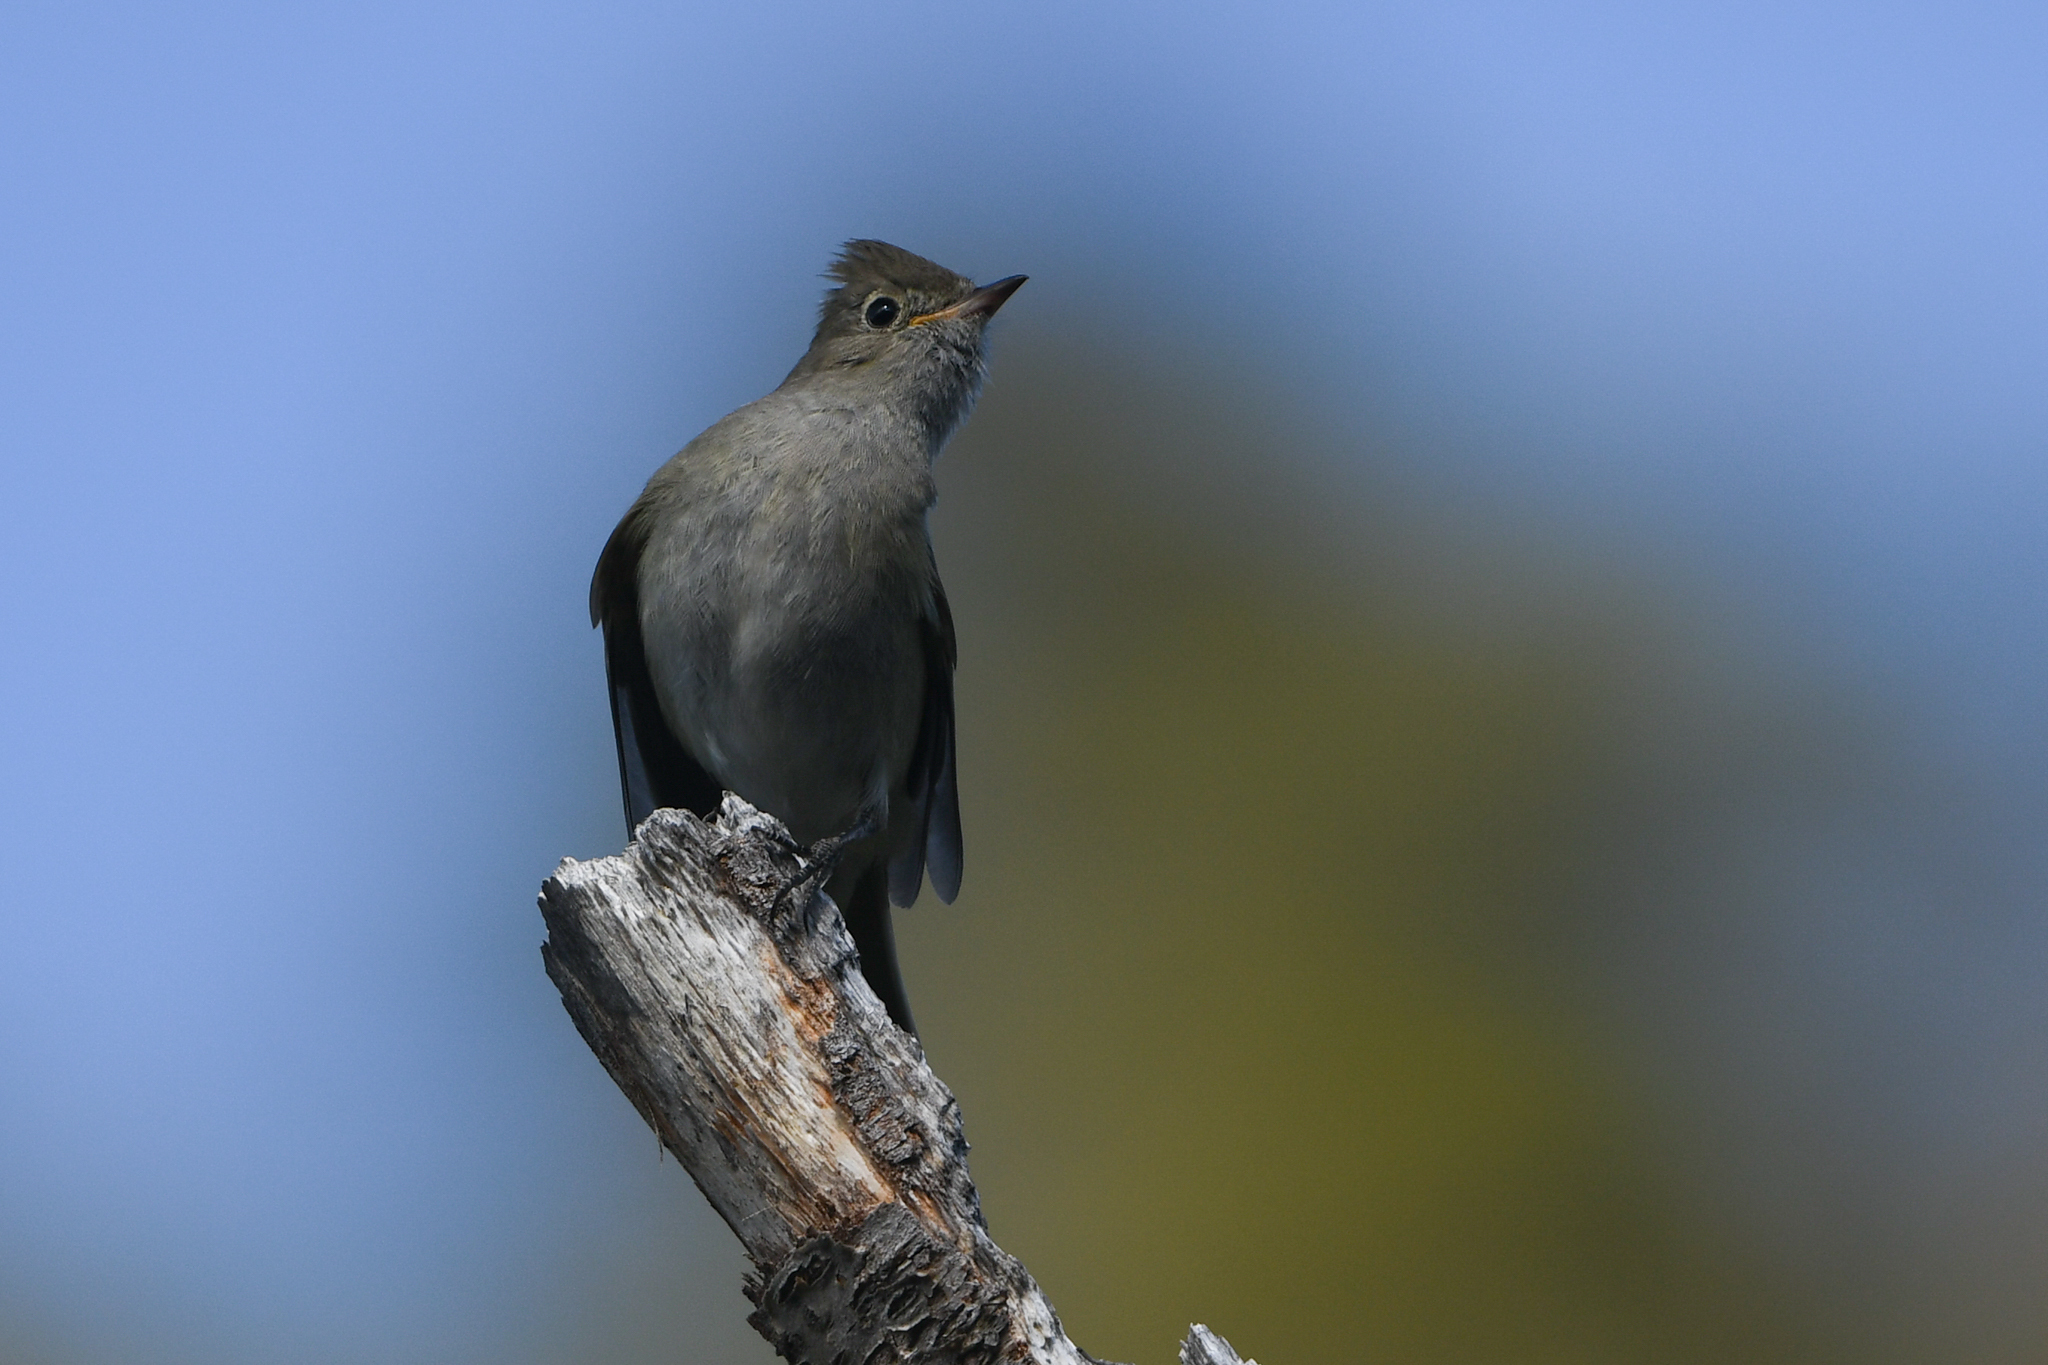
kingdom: Animalia
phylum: Chordata
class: Aves
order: Passeriformes
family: Tyrannidae
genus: Elaenia
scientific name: Elaenia albiceps
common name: White-crested elaenia
